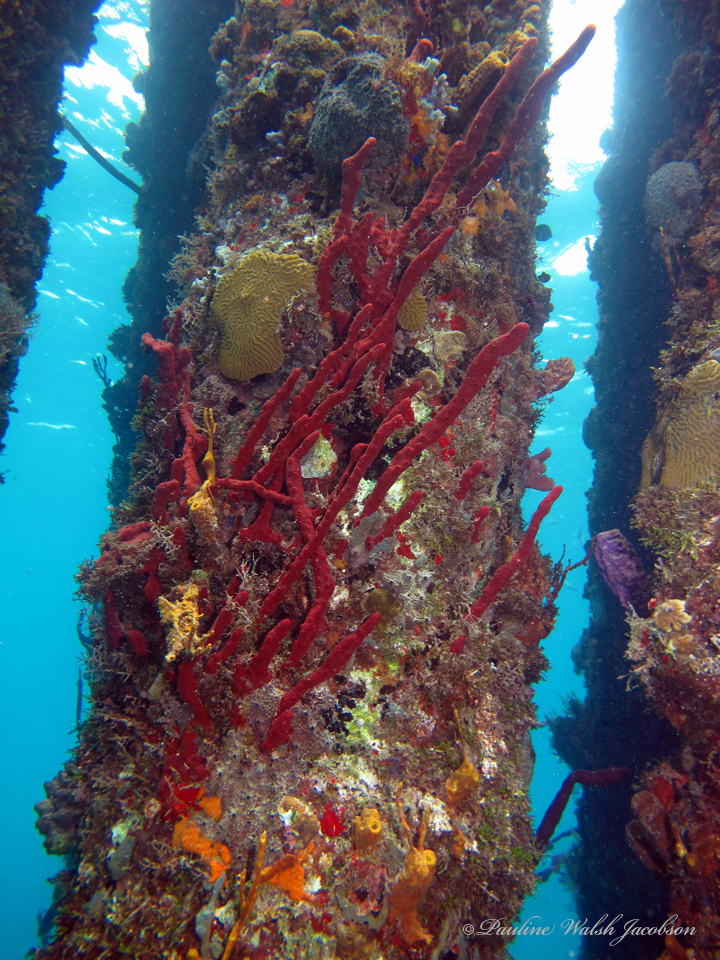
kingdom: Animalia
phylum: Porifera
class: Demospongiae
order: Haplosclerida
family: Niphatidae
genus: Amphimedon
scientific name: Amphimedon compressa
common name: Red sponge
